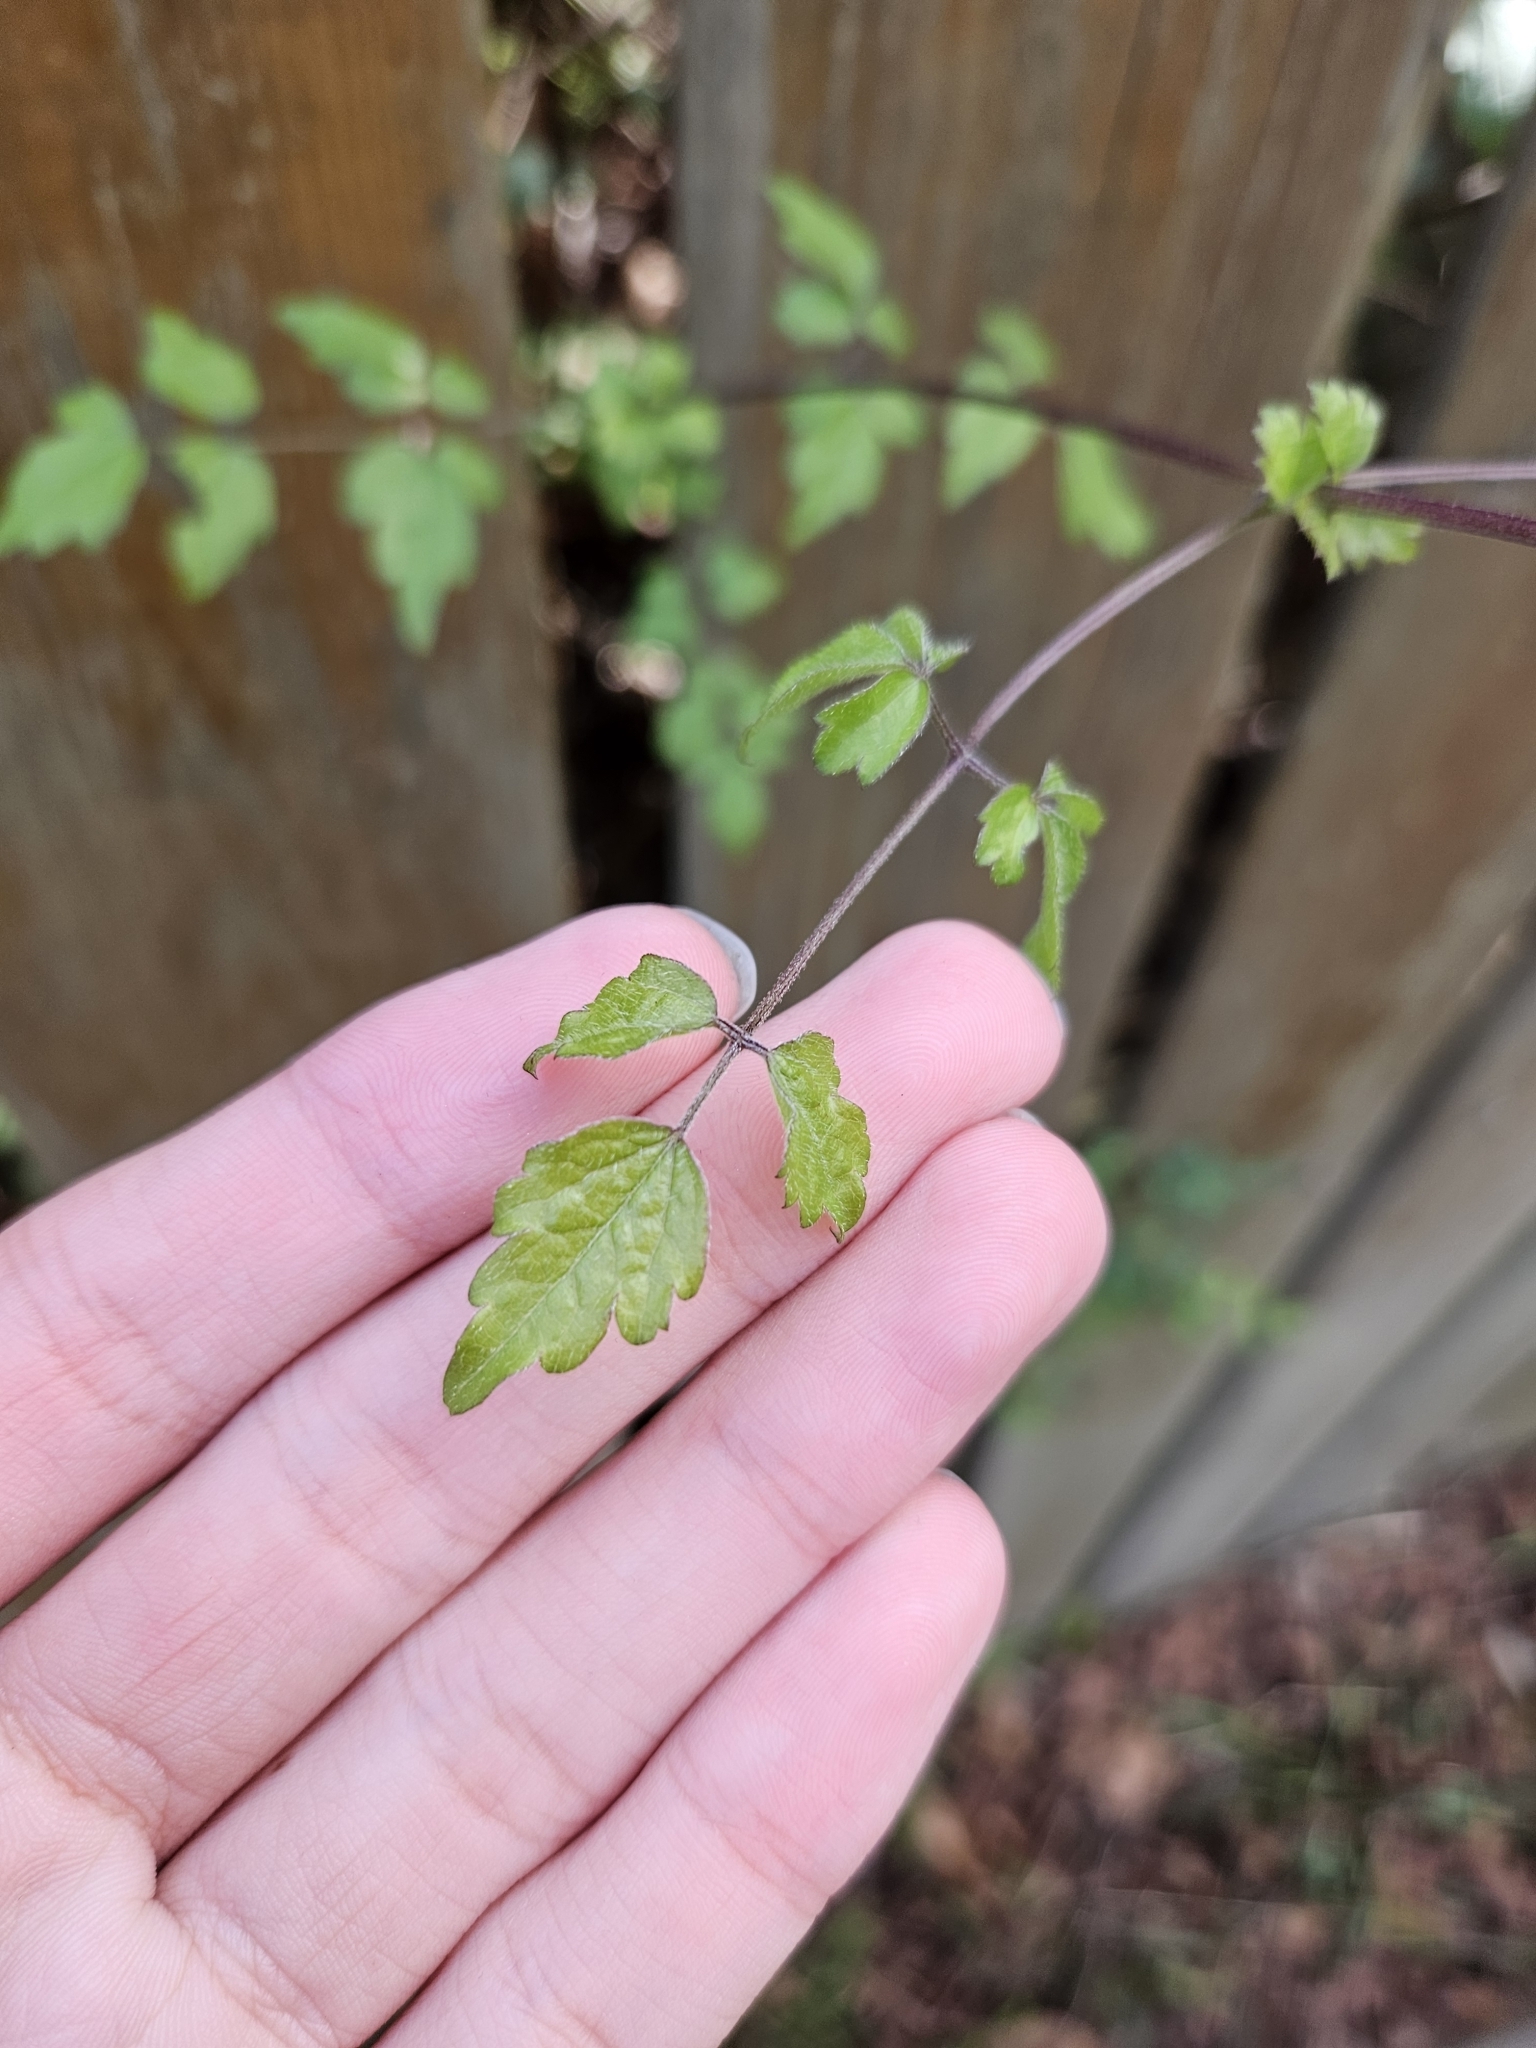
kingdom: Plantae
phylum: Tracheophyta
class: Magnoliopsida
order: Ranunculales
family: Ranunculaceae
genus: Clematis
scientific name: Clematis lishanensis
